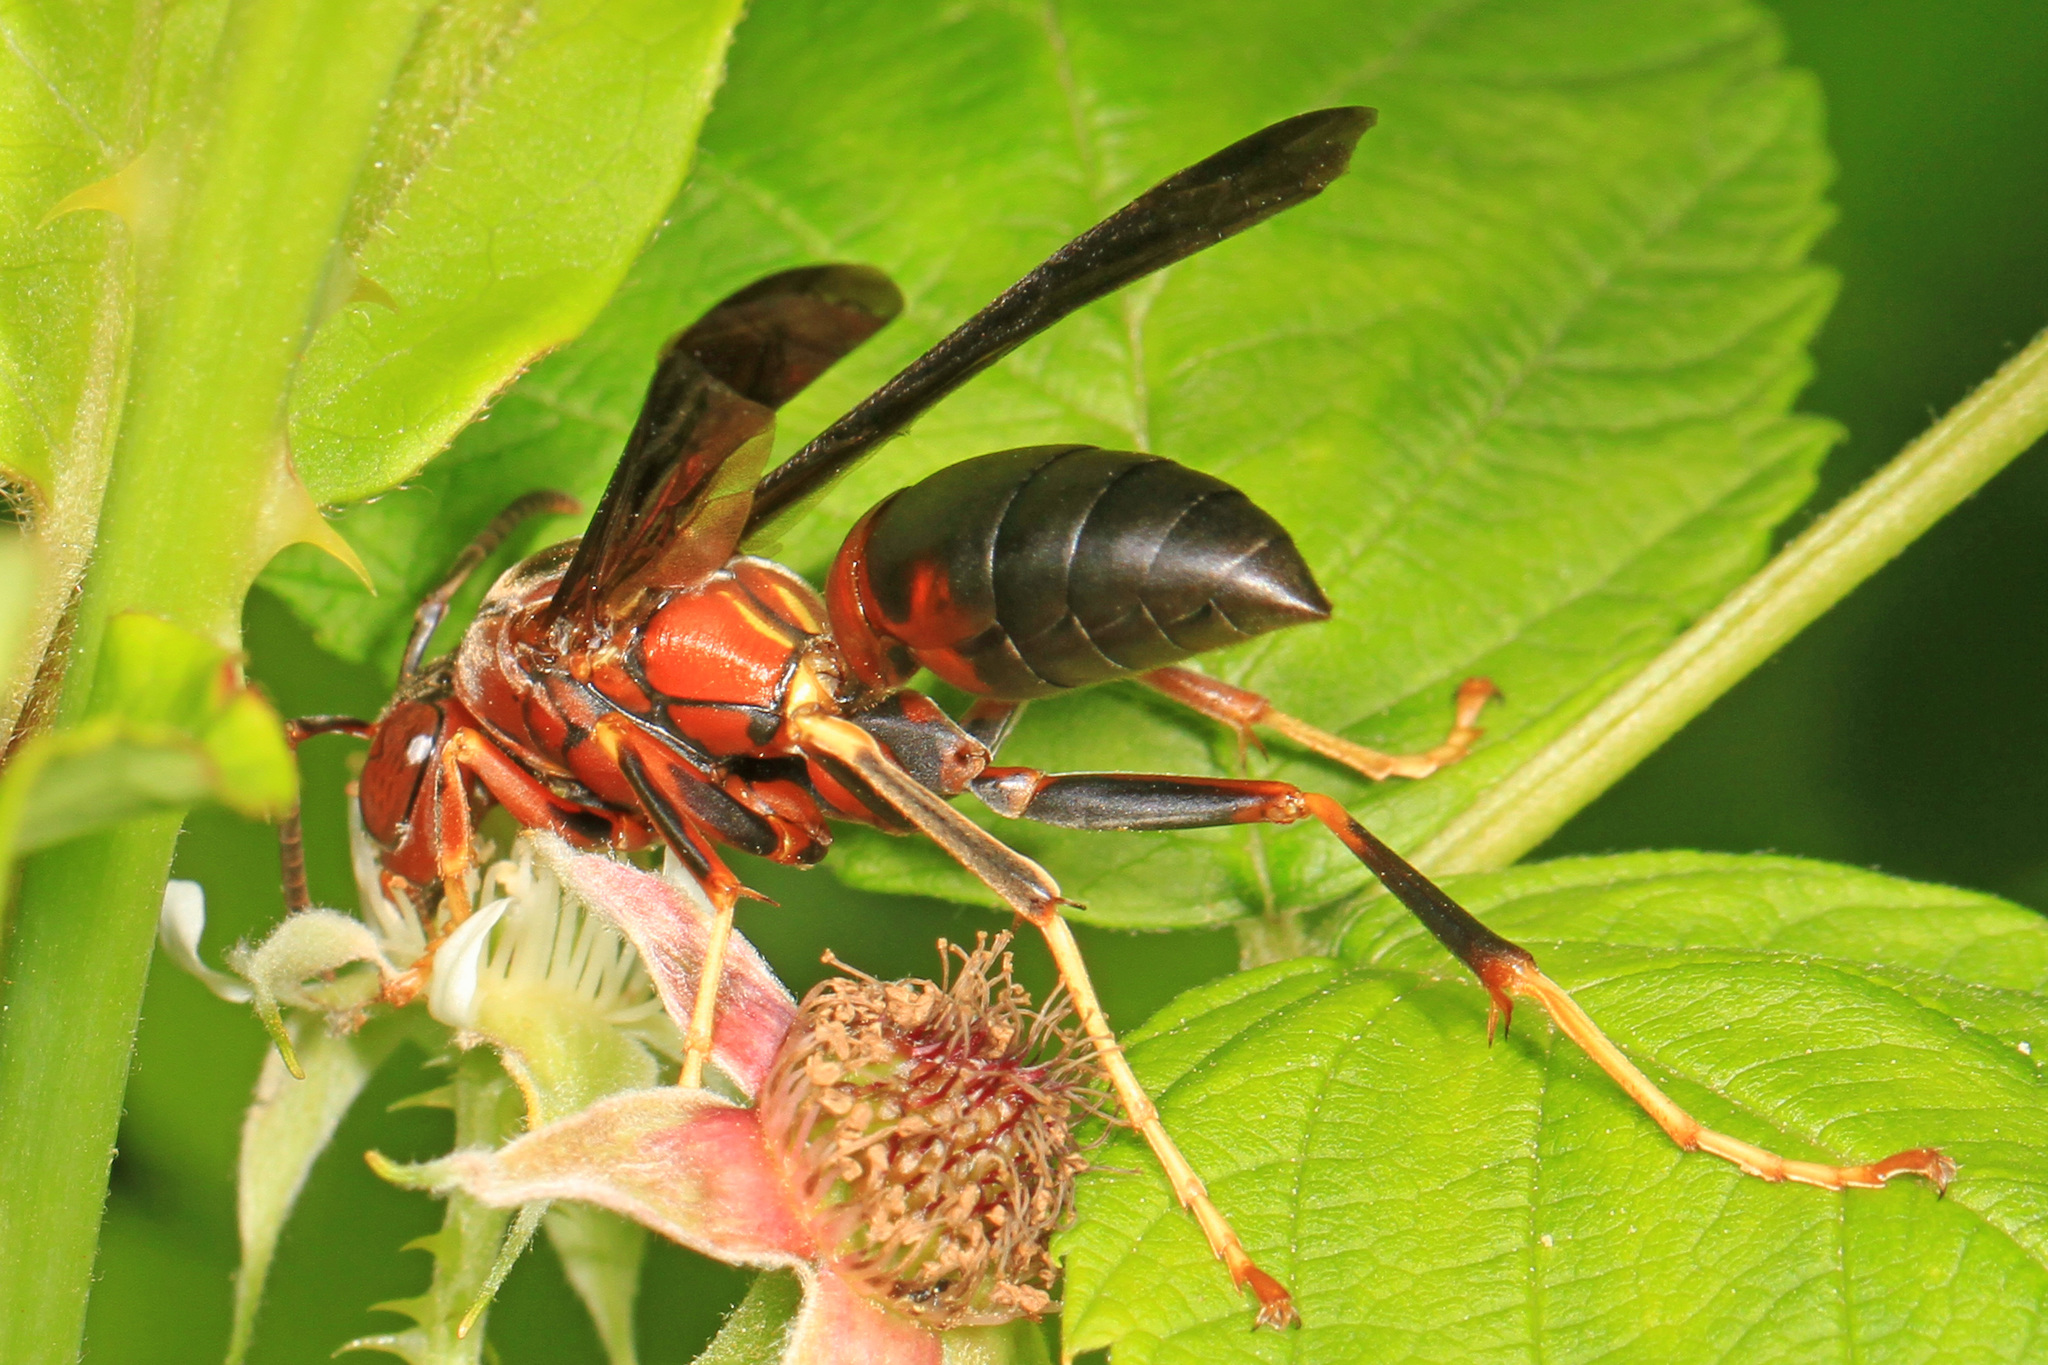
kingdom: Animalia
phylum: Arthropoda
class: Insecta
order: Hymenoptera
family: Eumenidae
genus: Polistes
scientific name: Polistes metricus
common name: Metric paper wasp
